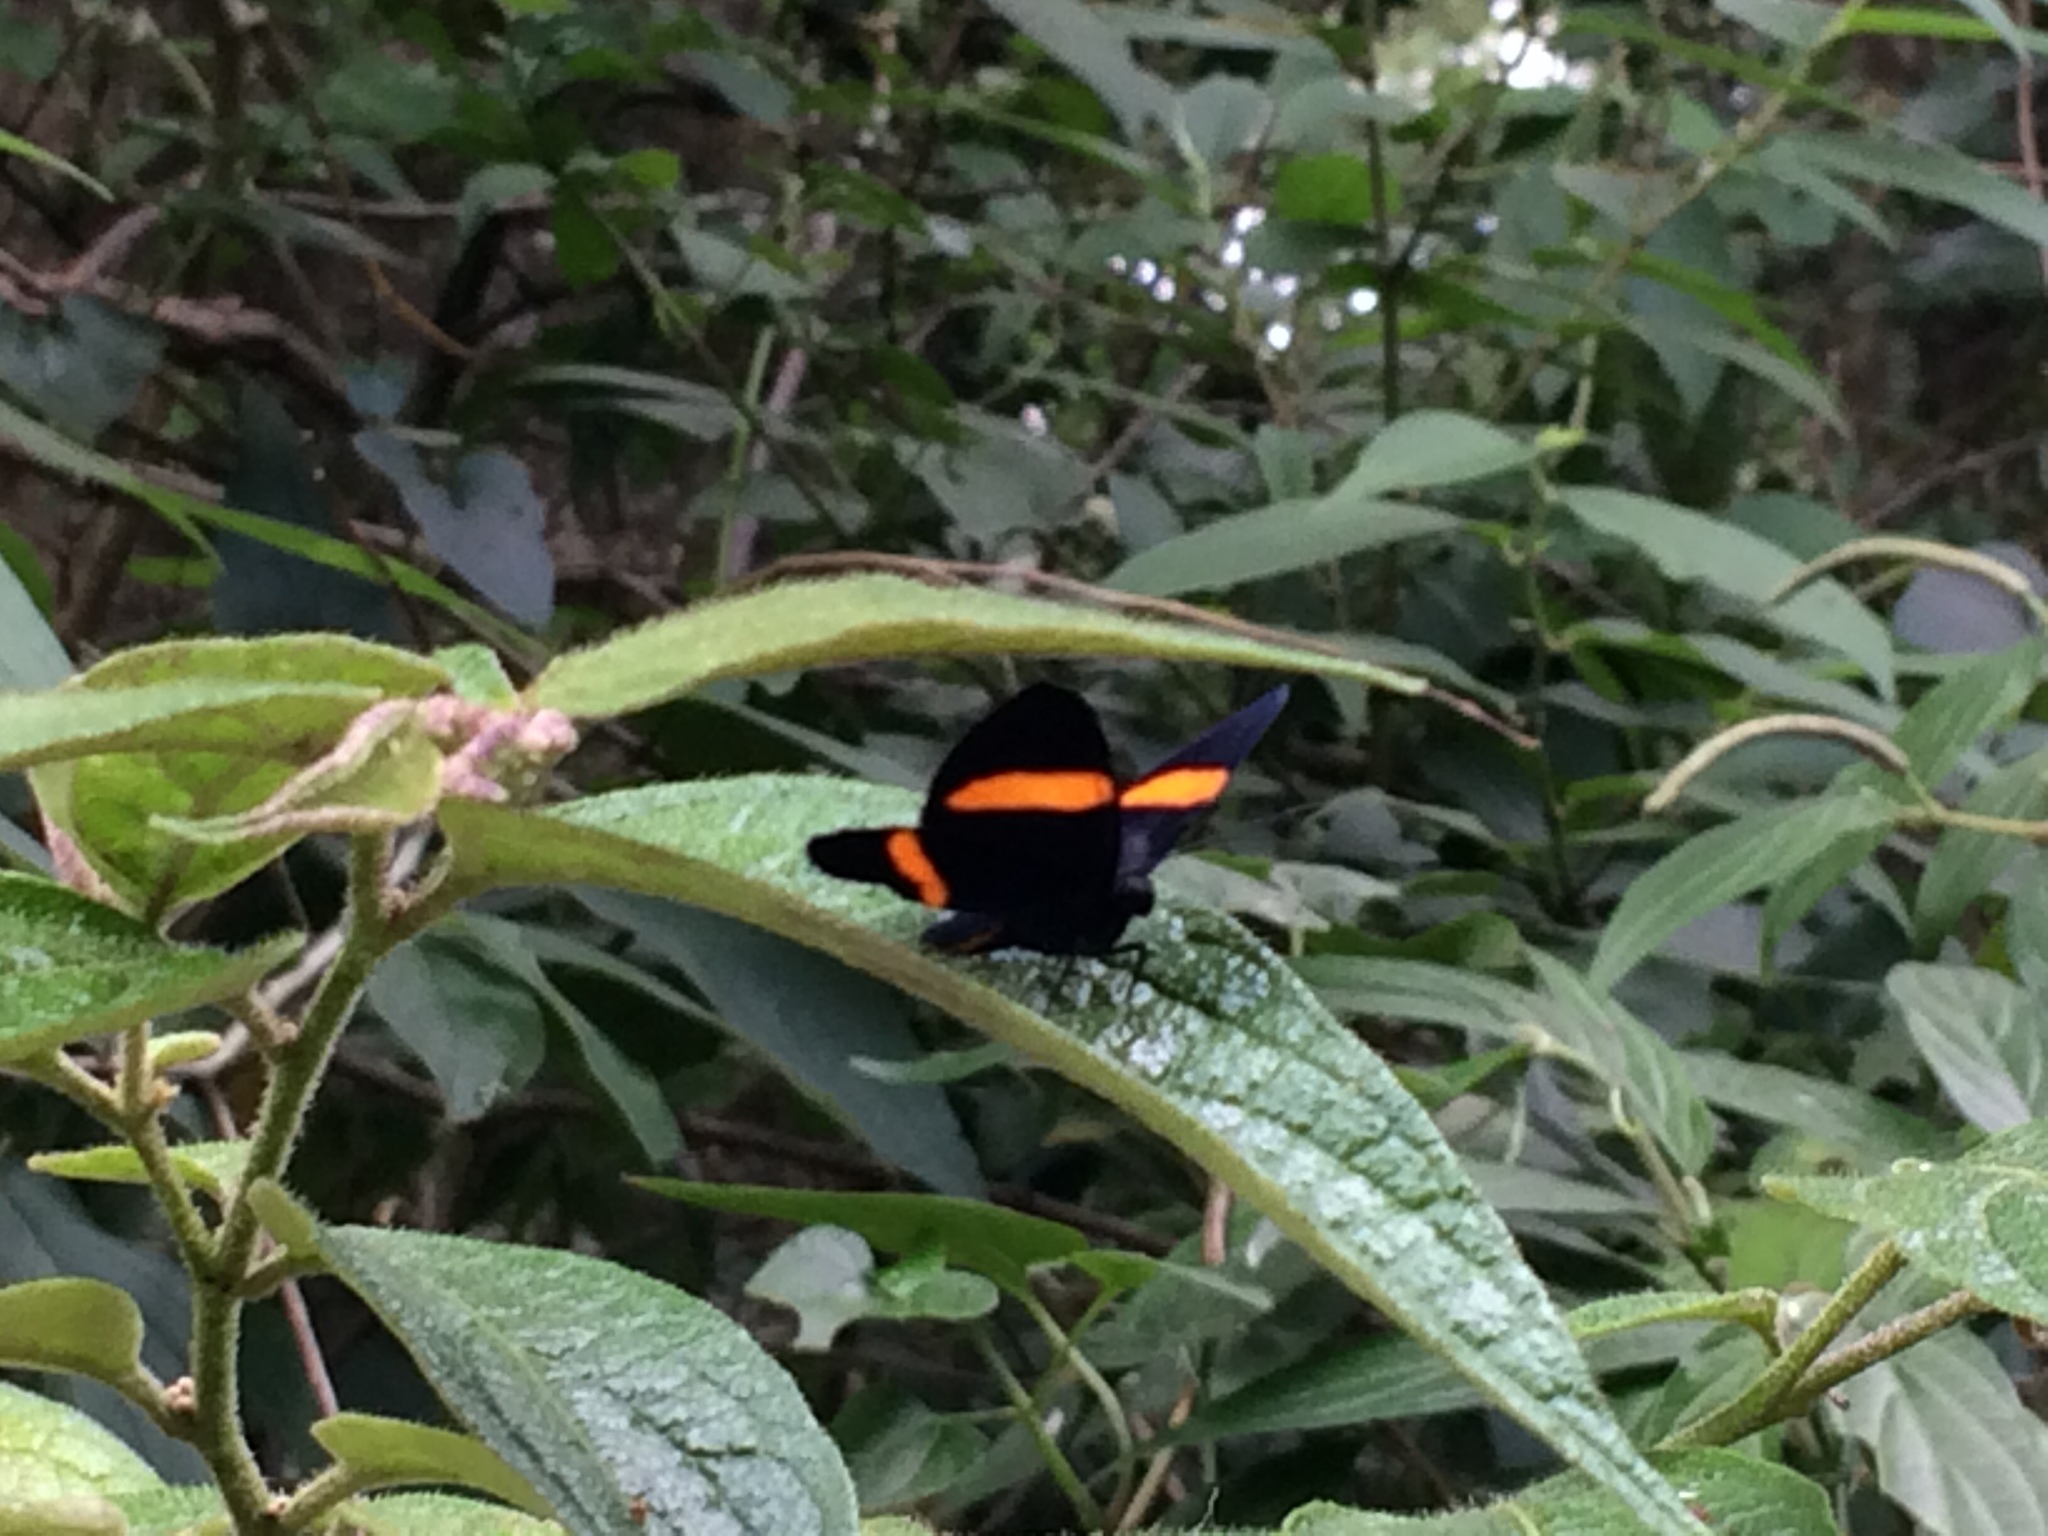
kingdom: Animalia
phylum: Arthropoda
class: Insecta
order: Lepidoptera
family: Riodinidae
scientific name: Riodinidae
